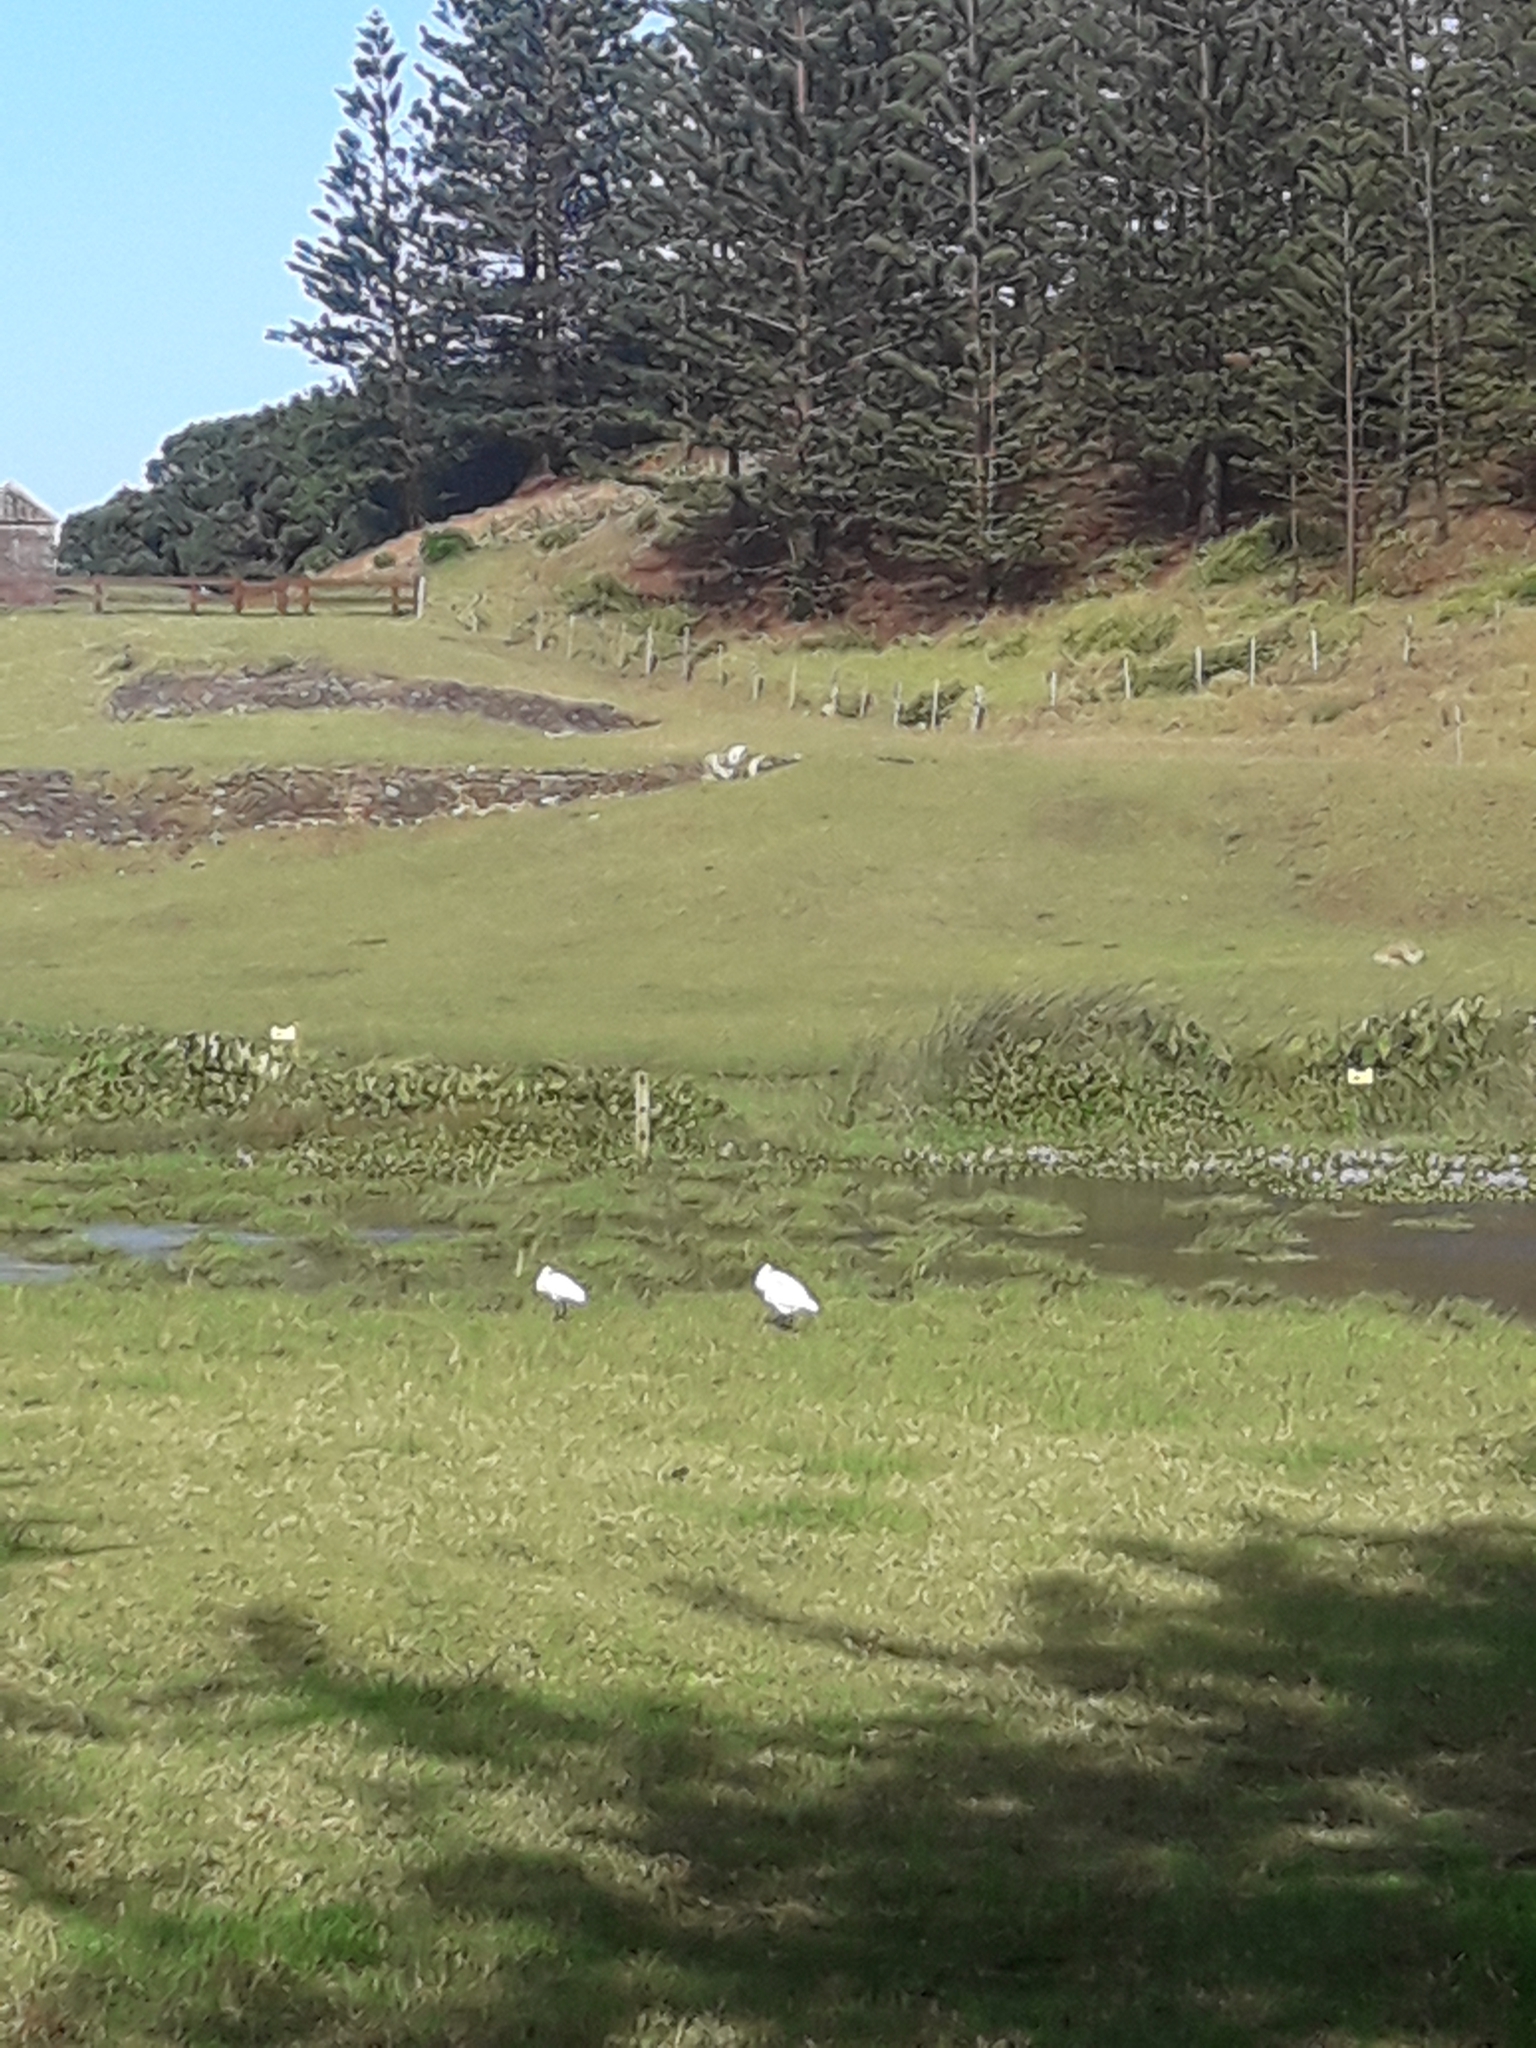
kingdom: Animalia
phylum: Chordata
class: Aves
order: Pelecaniformes
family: Threskiornithidae
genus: Platalea
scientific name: Platalea regia
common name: Royal spoonbill
